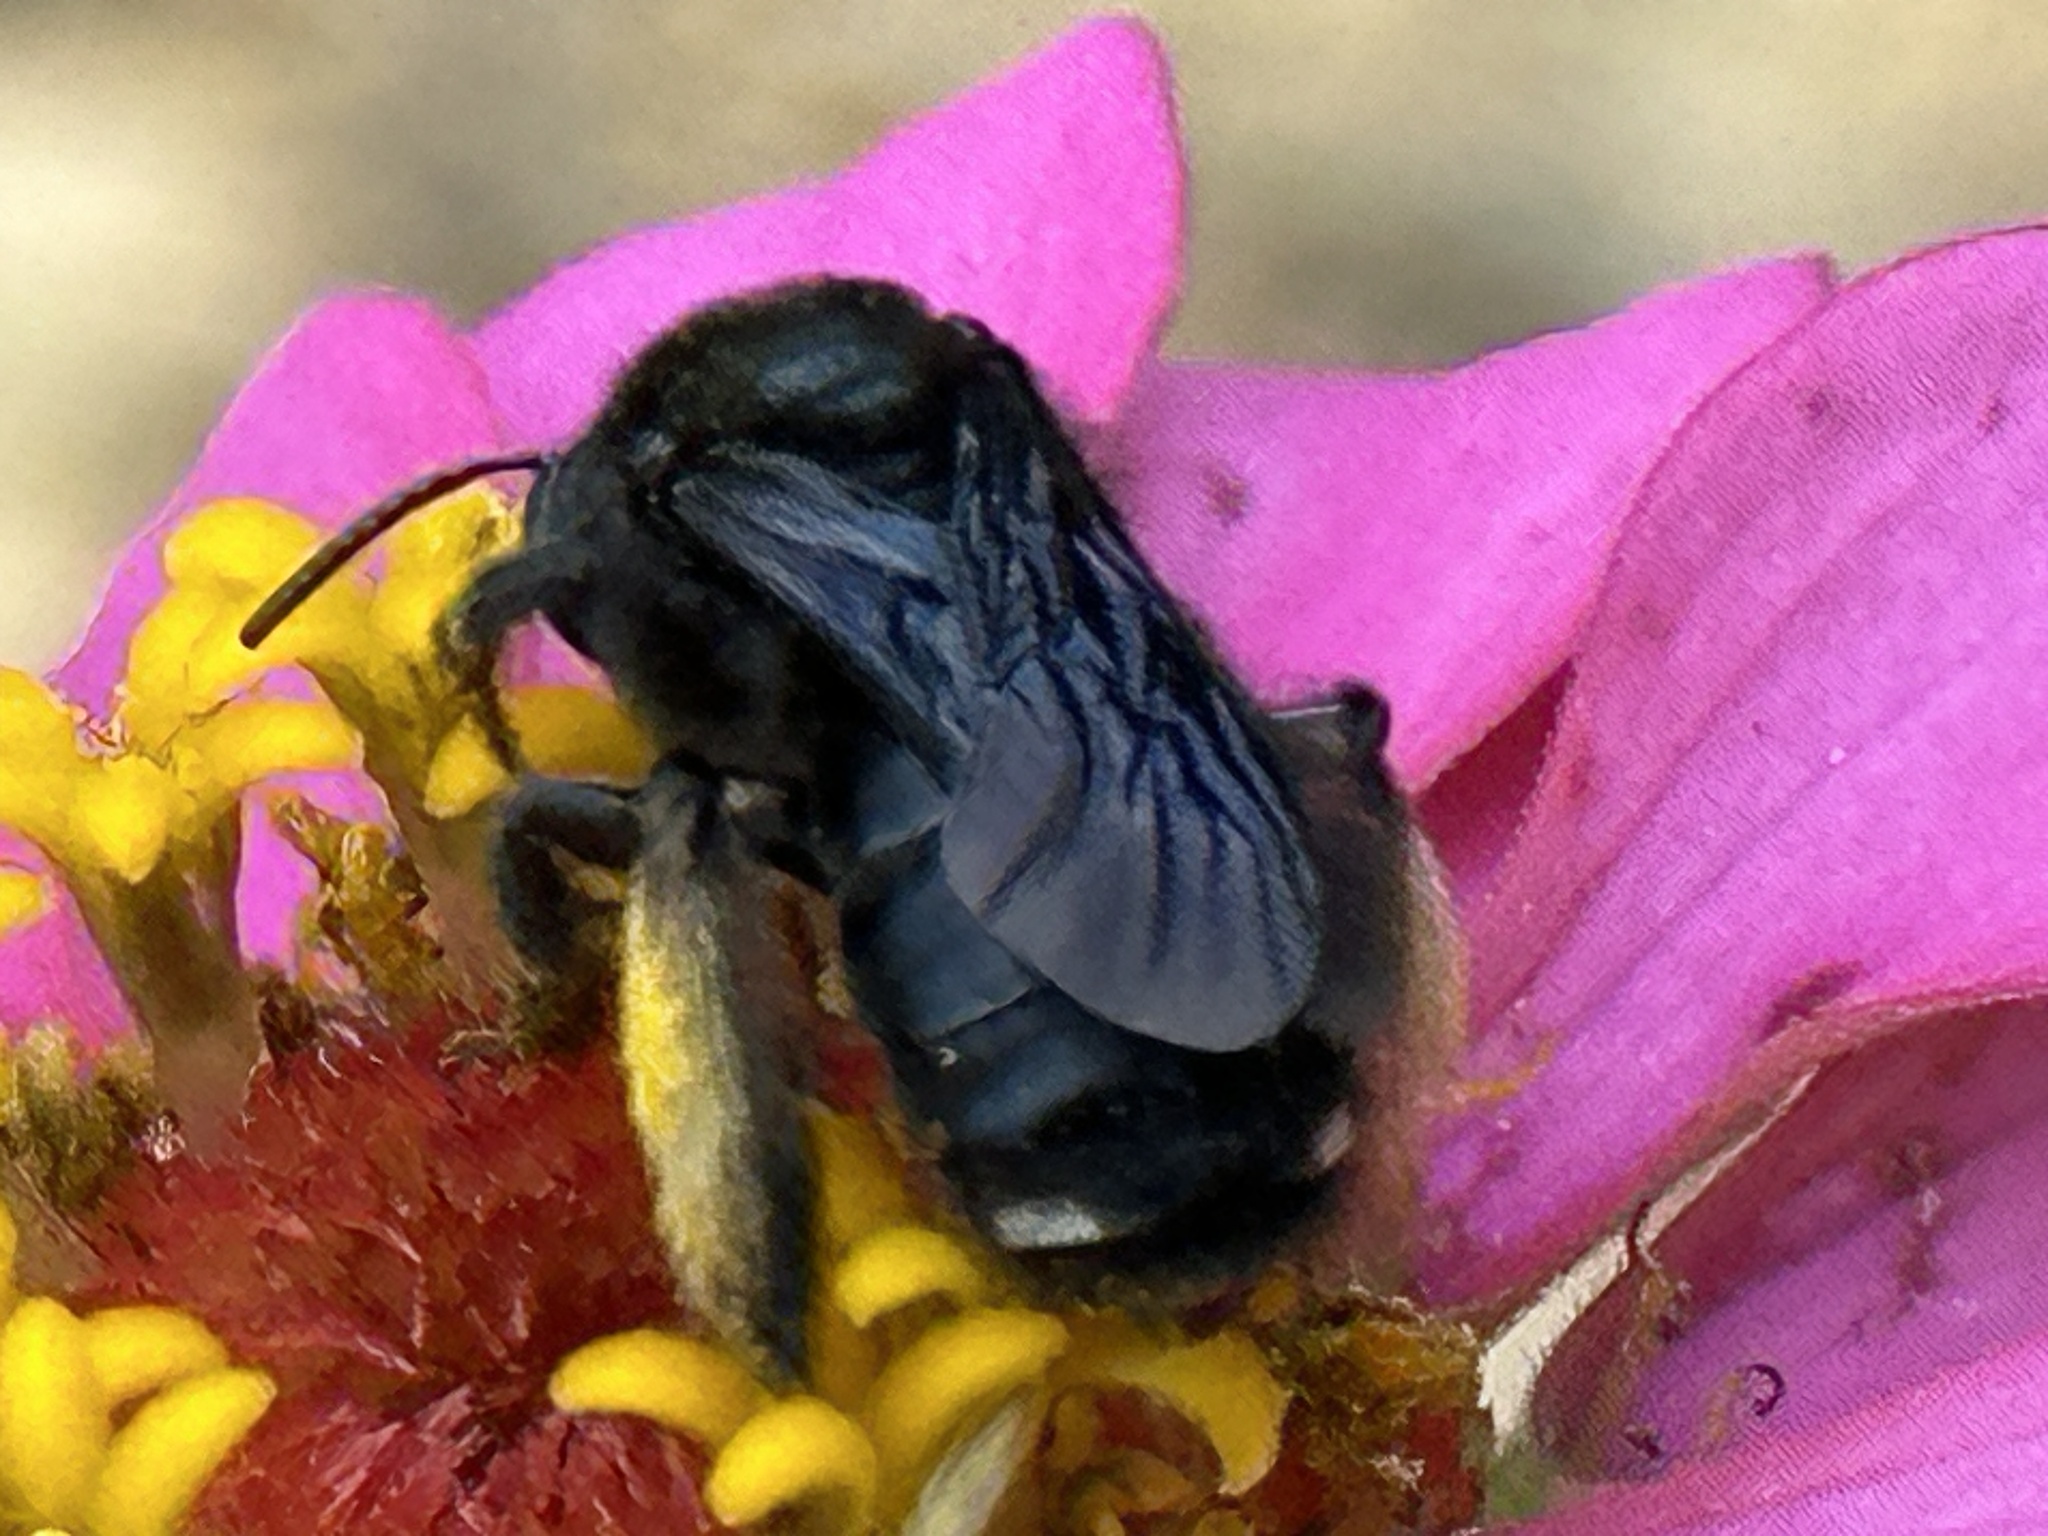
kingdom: Animalia
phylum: Arthropoda
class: Insecta
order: Hymenoptera
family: Apidae
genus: Melissodes
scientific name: Melissodes bimaculatus
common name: Two-spotted long-horned bee
